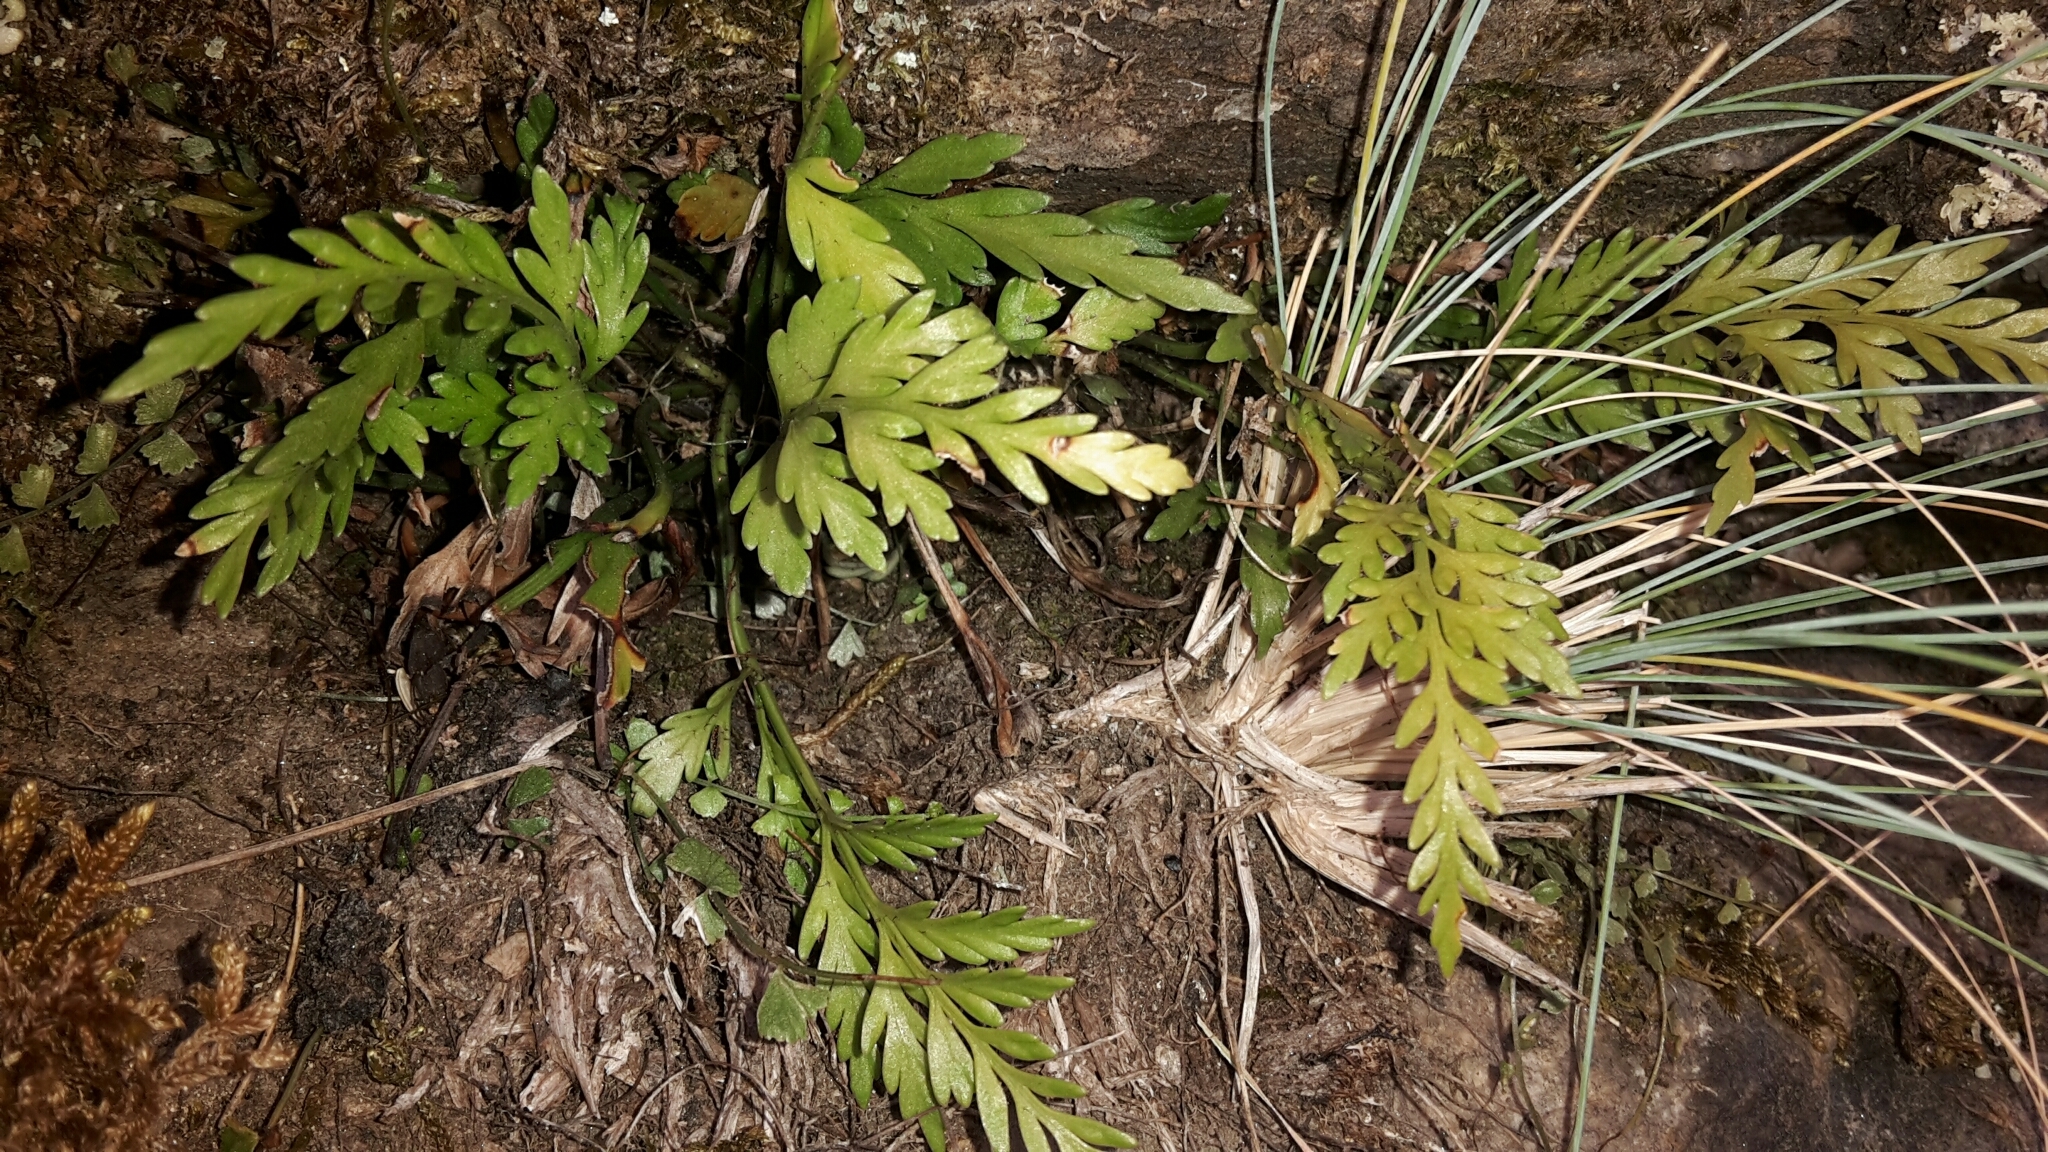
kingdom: Plantae
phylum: Tracheophyta
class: Polypodiopsida
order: Polypodiales
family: Aspleniaceae
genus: Asplenium
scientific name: Asplenium appendiculatum
